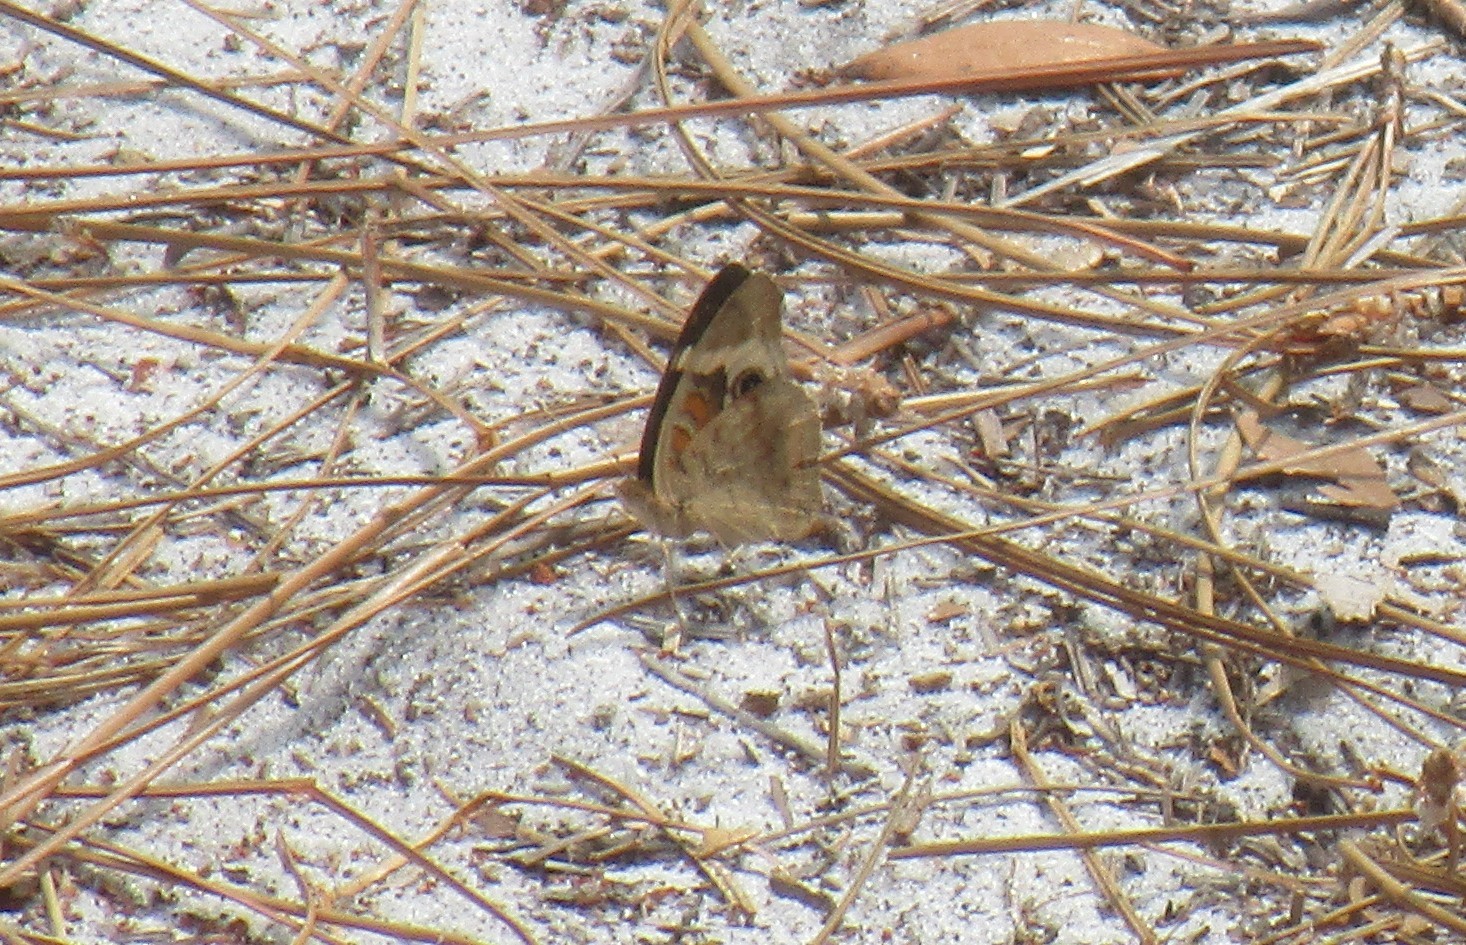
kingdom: Animalia
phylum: Arthropoda
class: Insecta
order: Lepidoptera
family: Nymphalidae
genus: Junonia
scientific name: Junonia coenia
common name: Common buckeye
